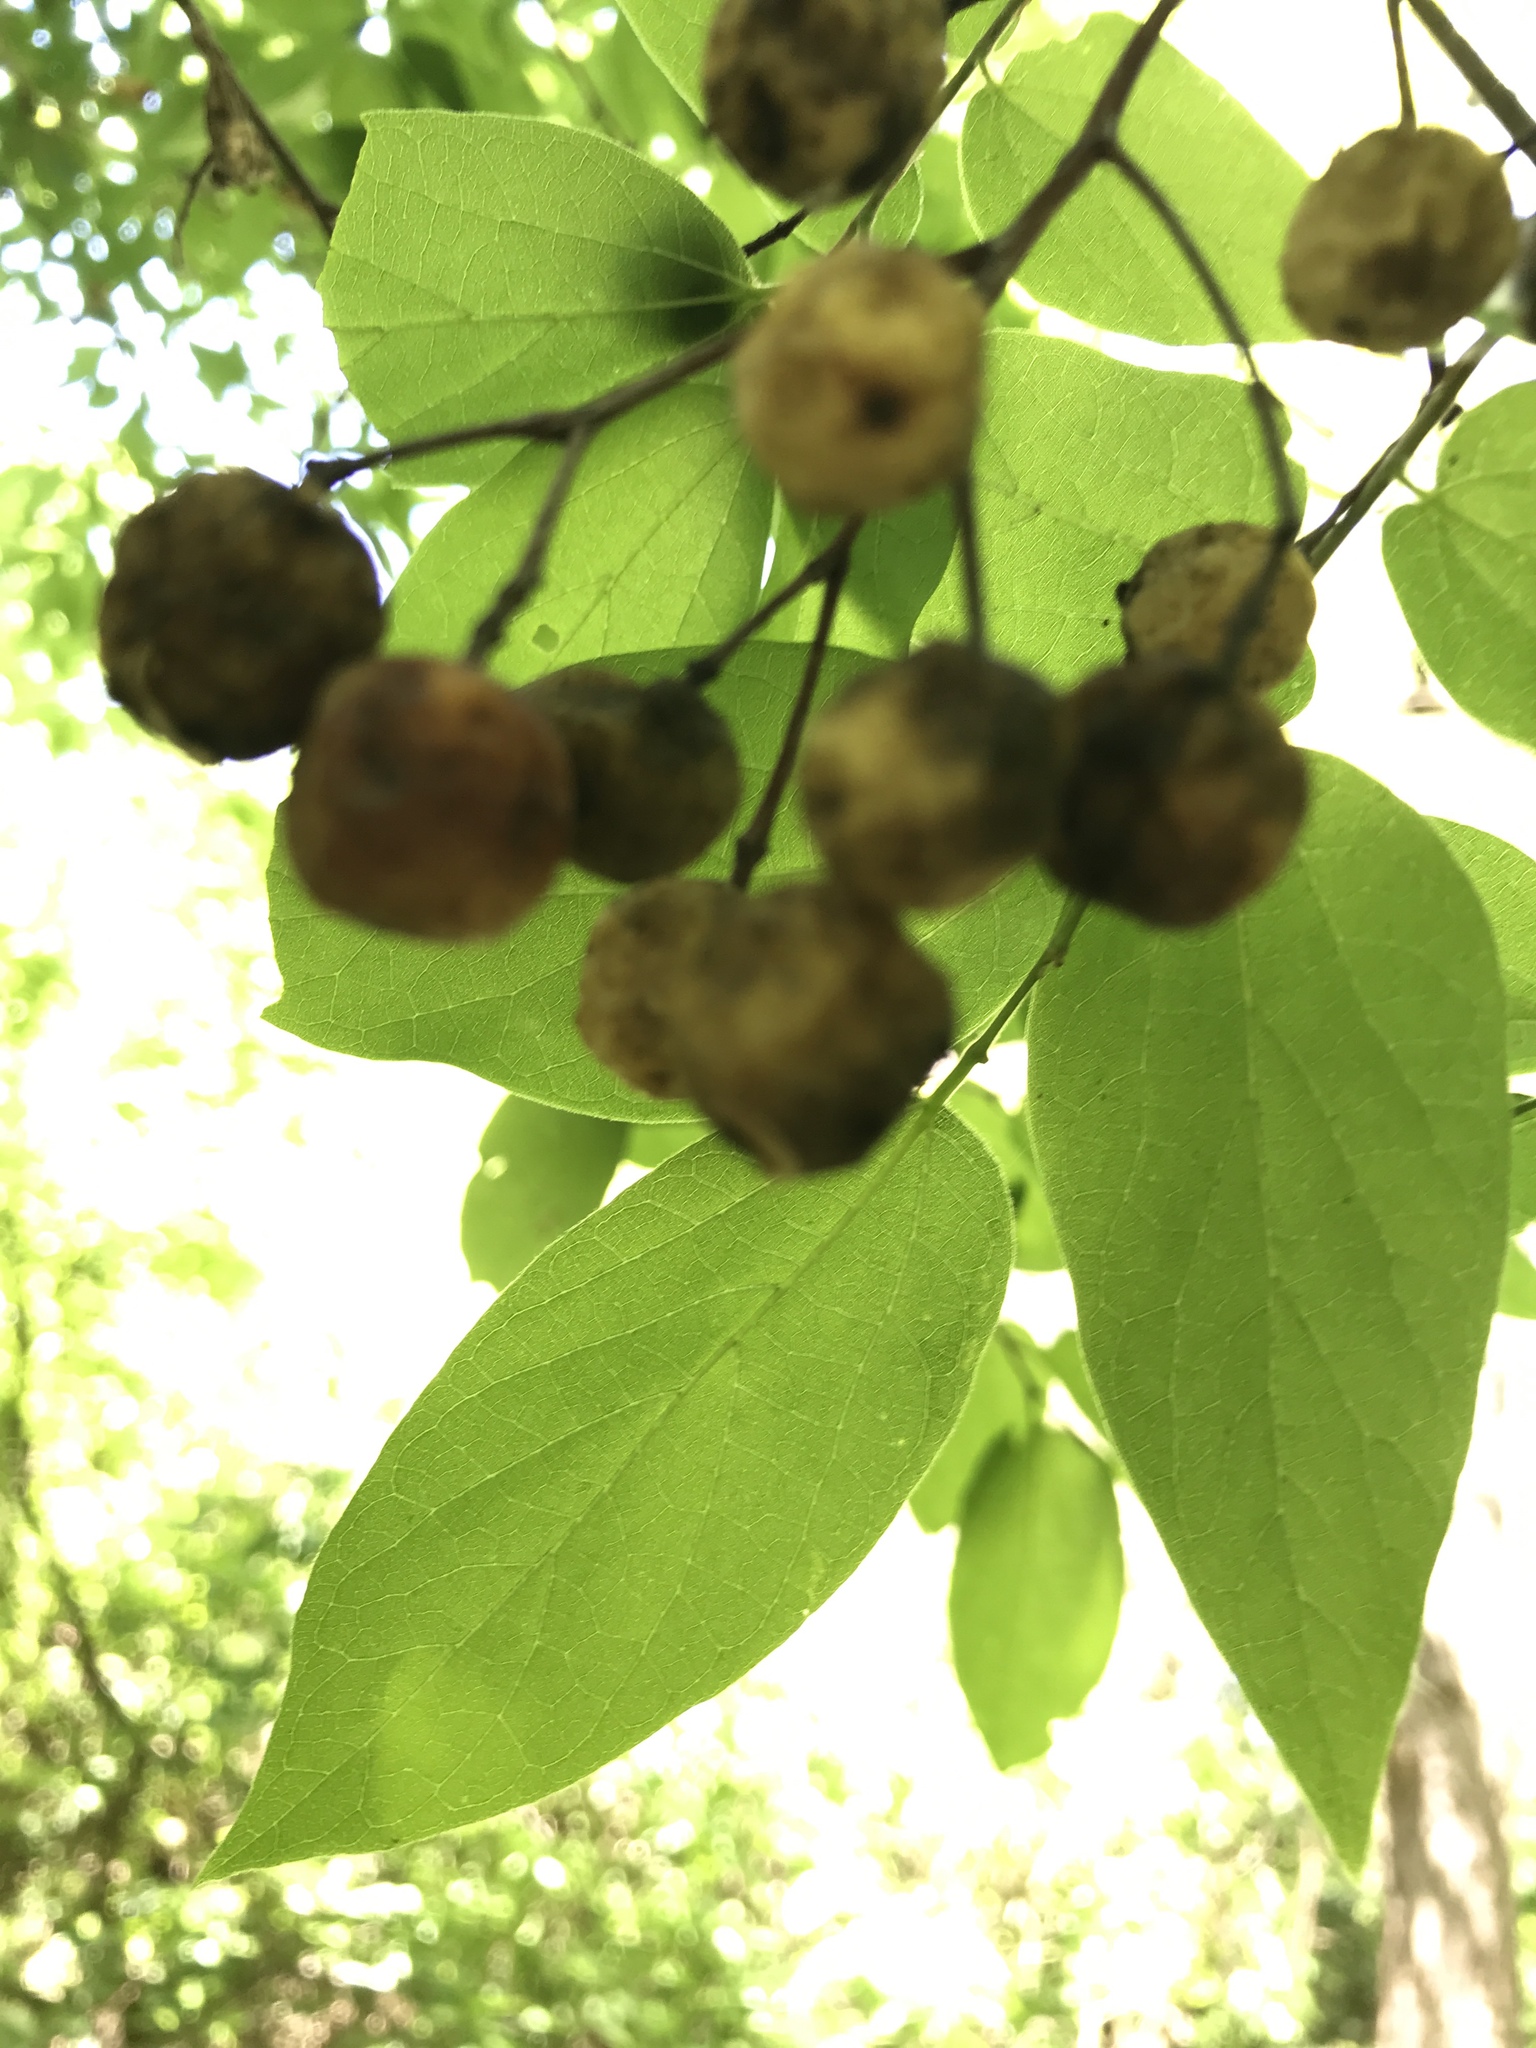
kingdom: Plantae
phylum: Tracheophyta
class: Magnoliopsida
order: Rosales
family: Cannabaceae
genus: Celtis
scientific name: Celtis laevigata
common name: Sugarberry
